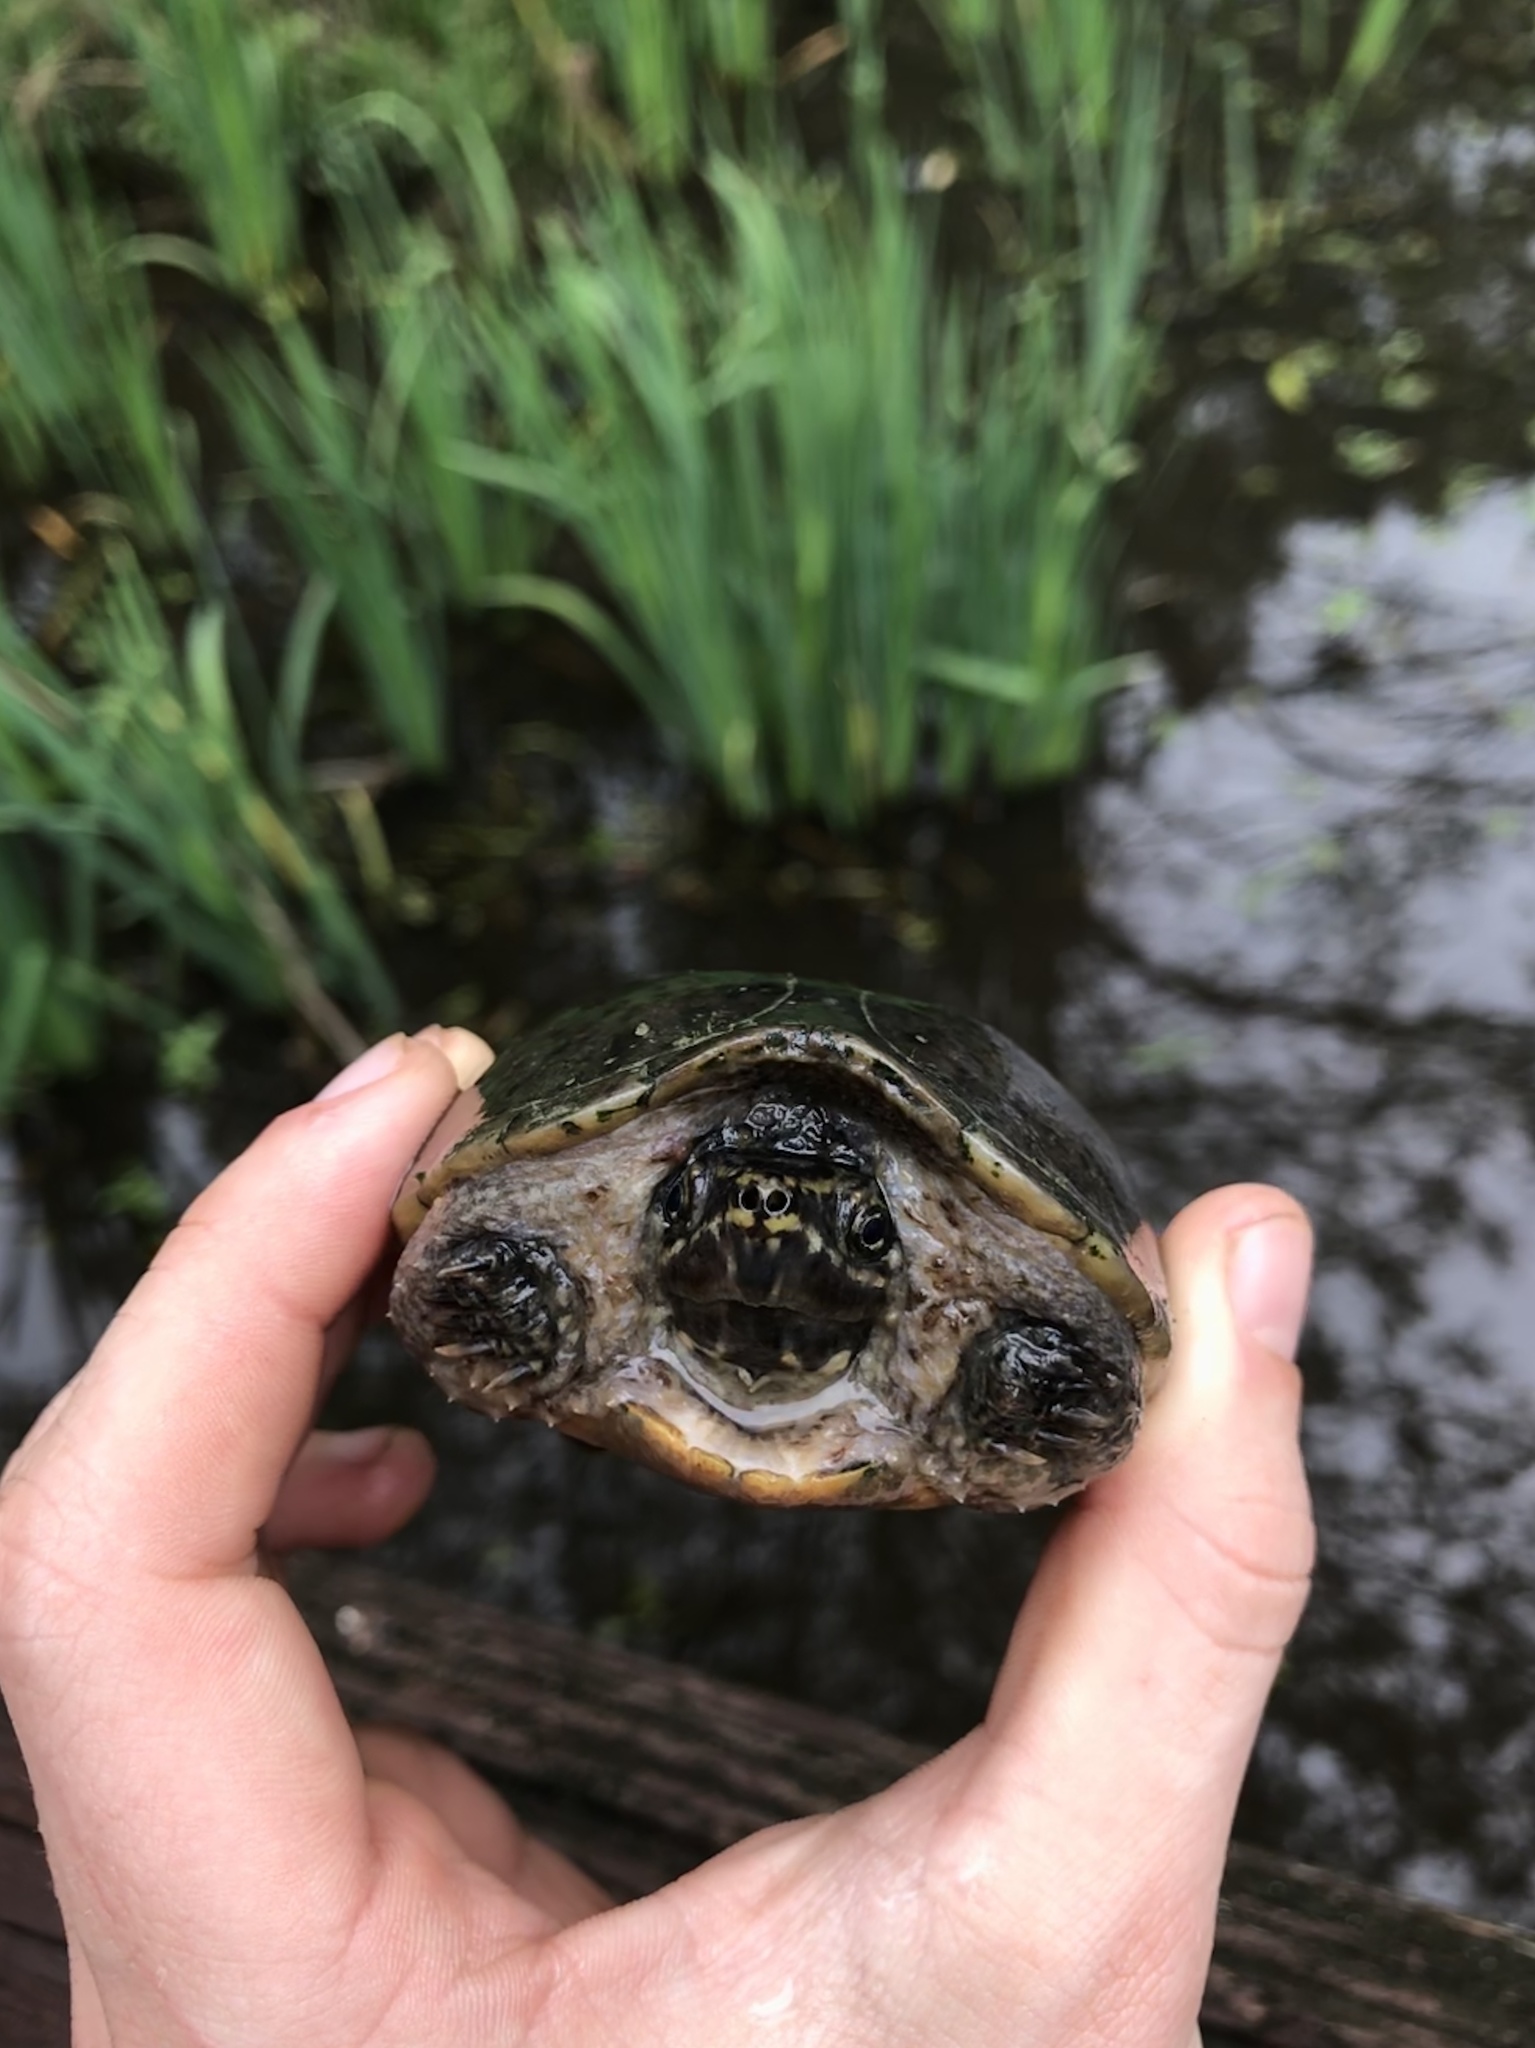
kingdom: Animalia
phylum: Chordata
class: Testudines
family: Kinosternidae
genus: Sternotherus
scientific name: Sternotherus odoratus
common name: Common musk turtle
